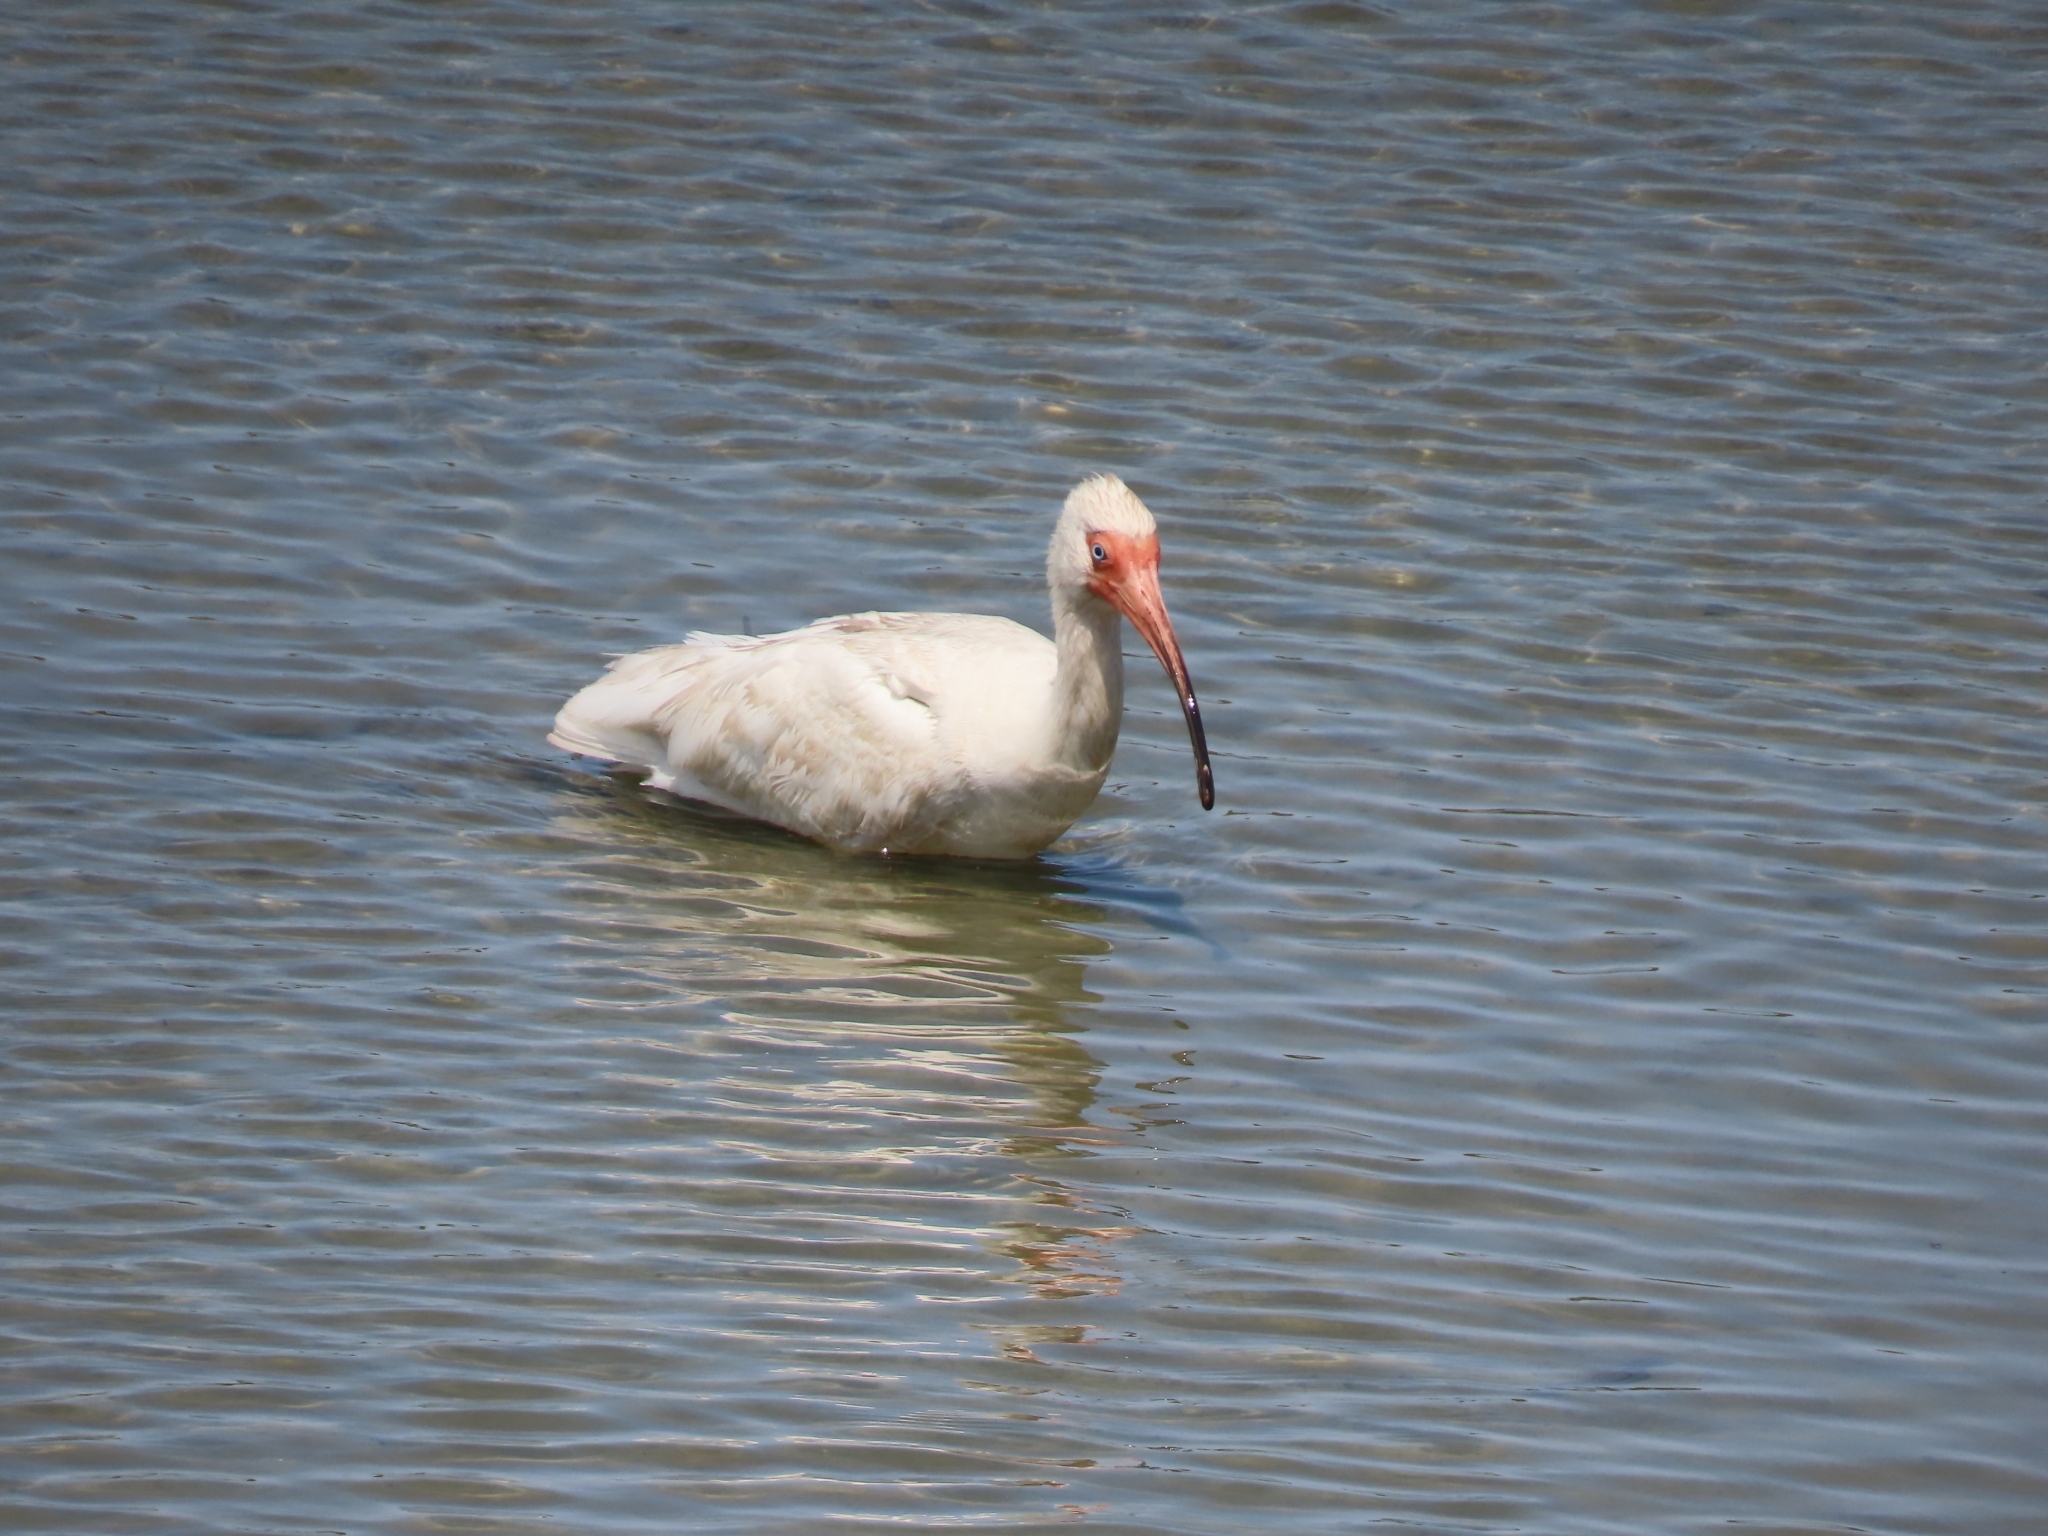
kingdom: Animalia
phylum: Chordata
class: Aves
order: Pelecaniformes
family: Threskiornithidae
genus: Eudocimus
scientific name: Eudocimus albus
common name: White ibis
